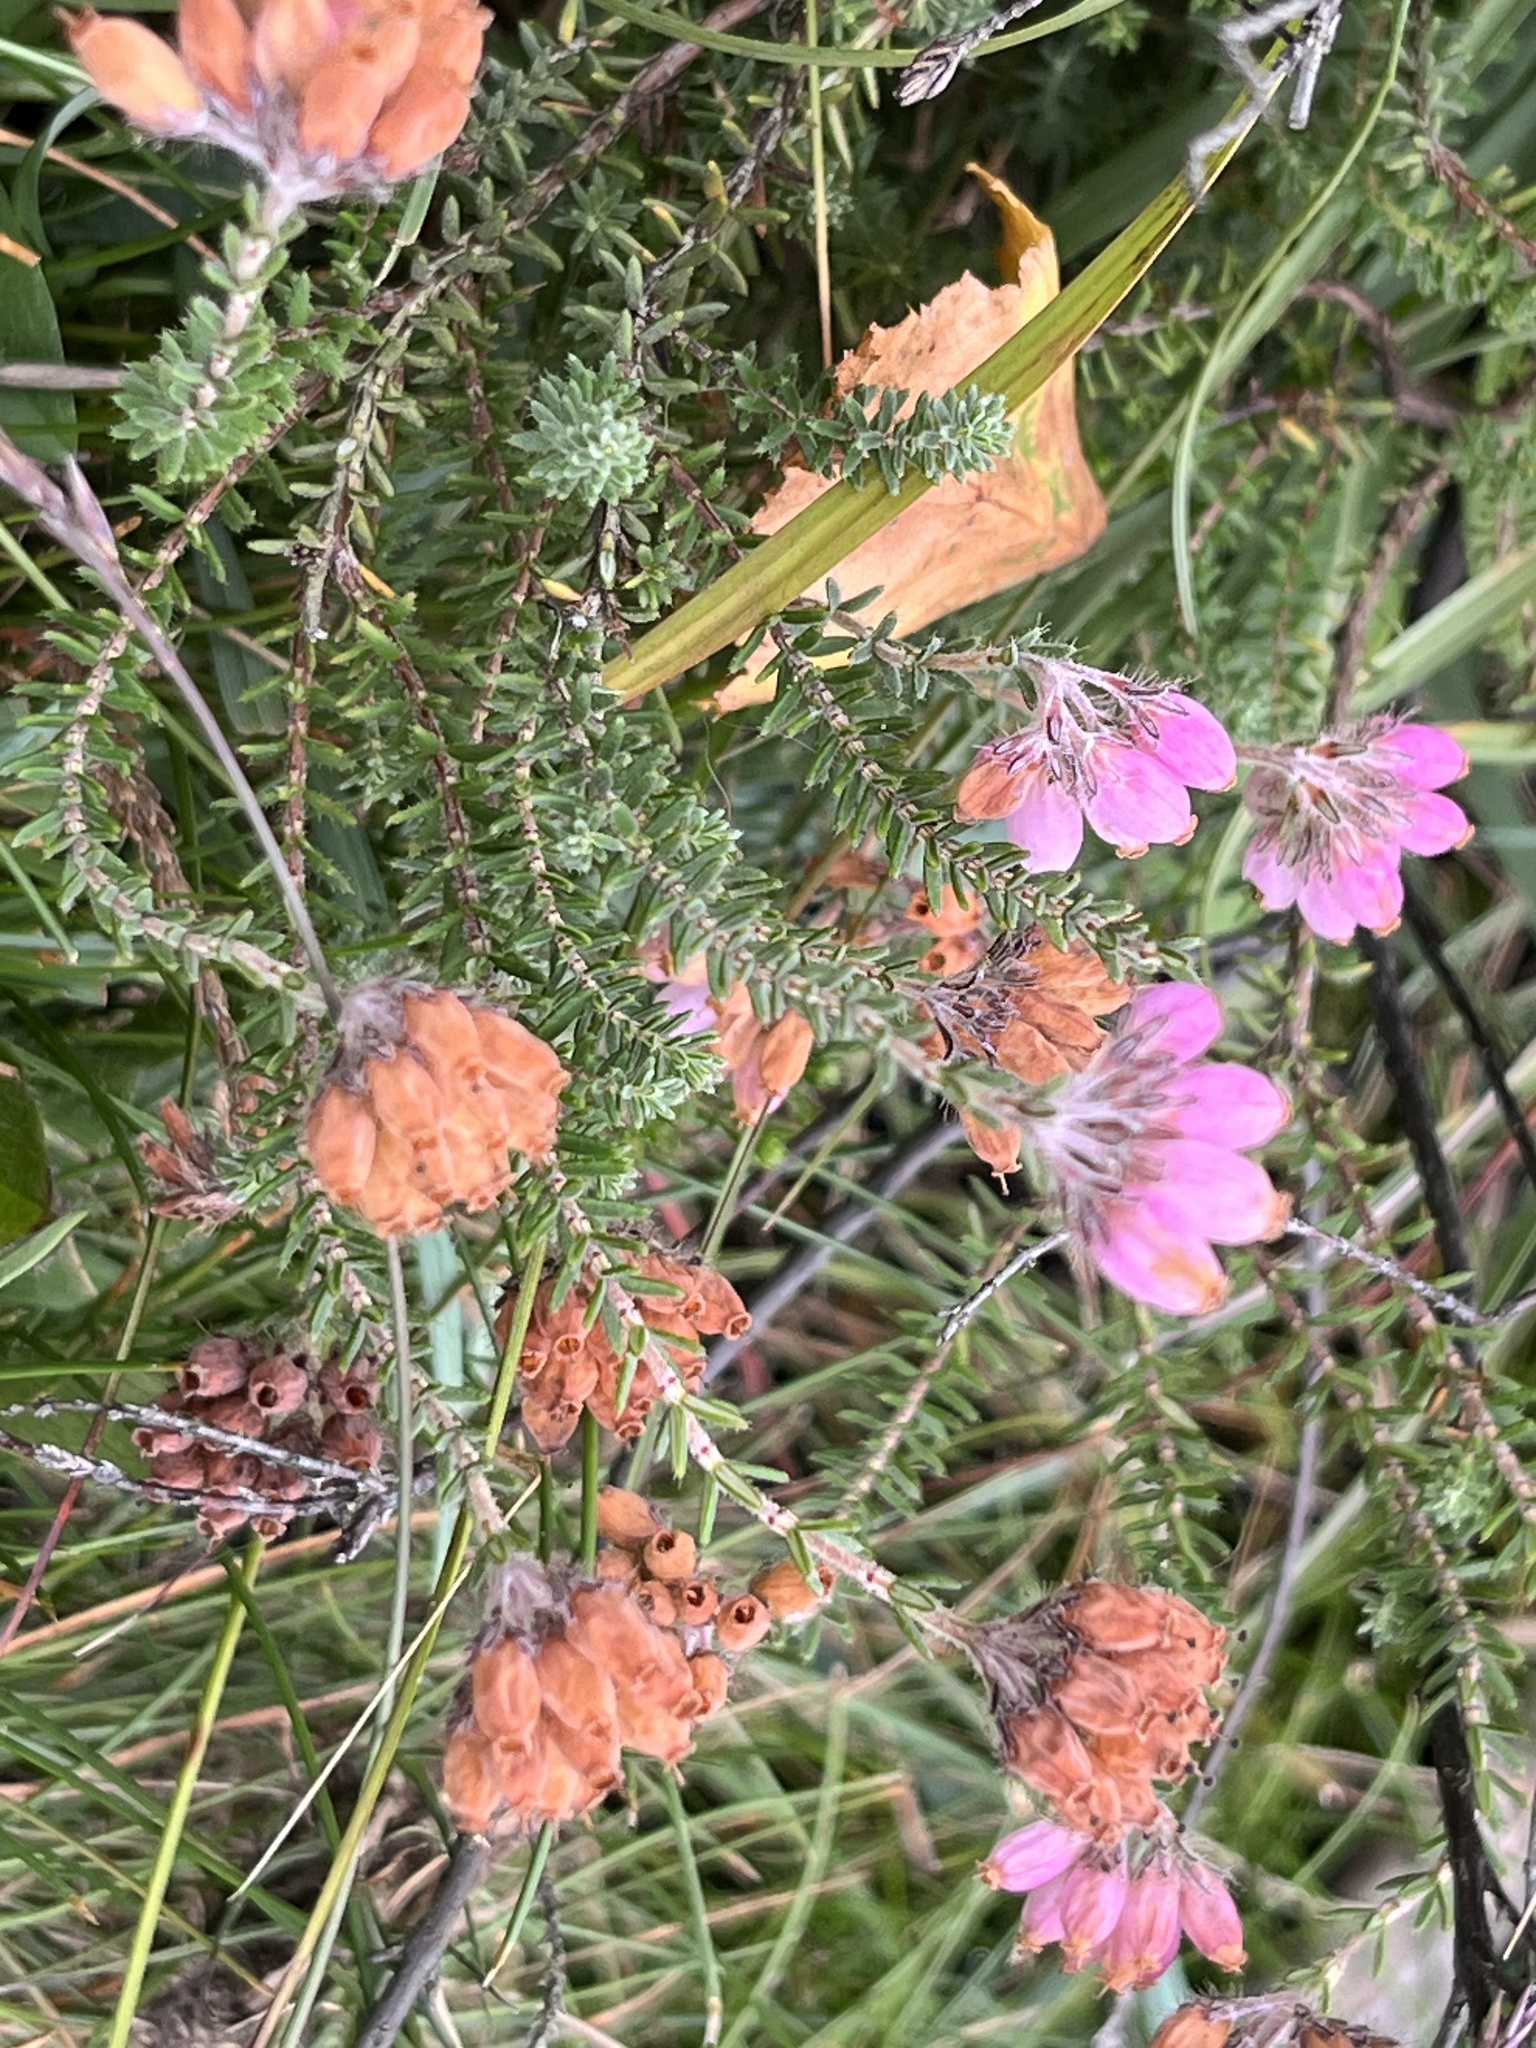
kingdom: Plantae
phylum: Tracheophyta
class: Magnoliopsida
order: Ericales
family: Ericaceae
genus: Erica
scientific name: Erica tetralix
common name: Cross-leaved heath
